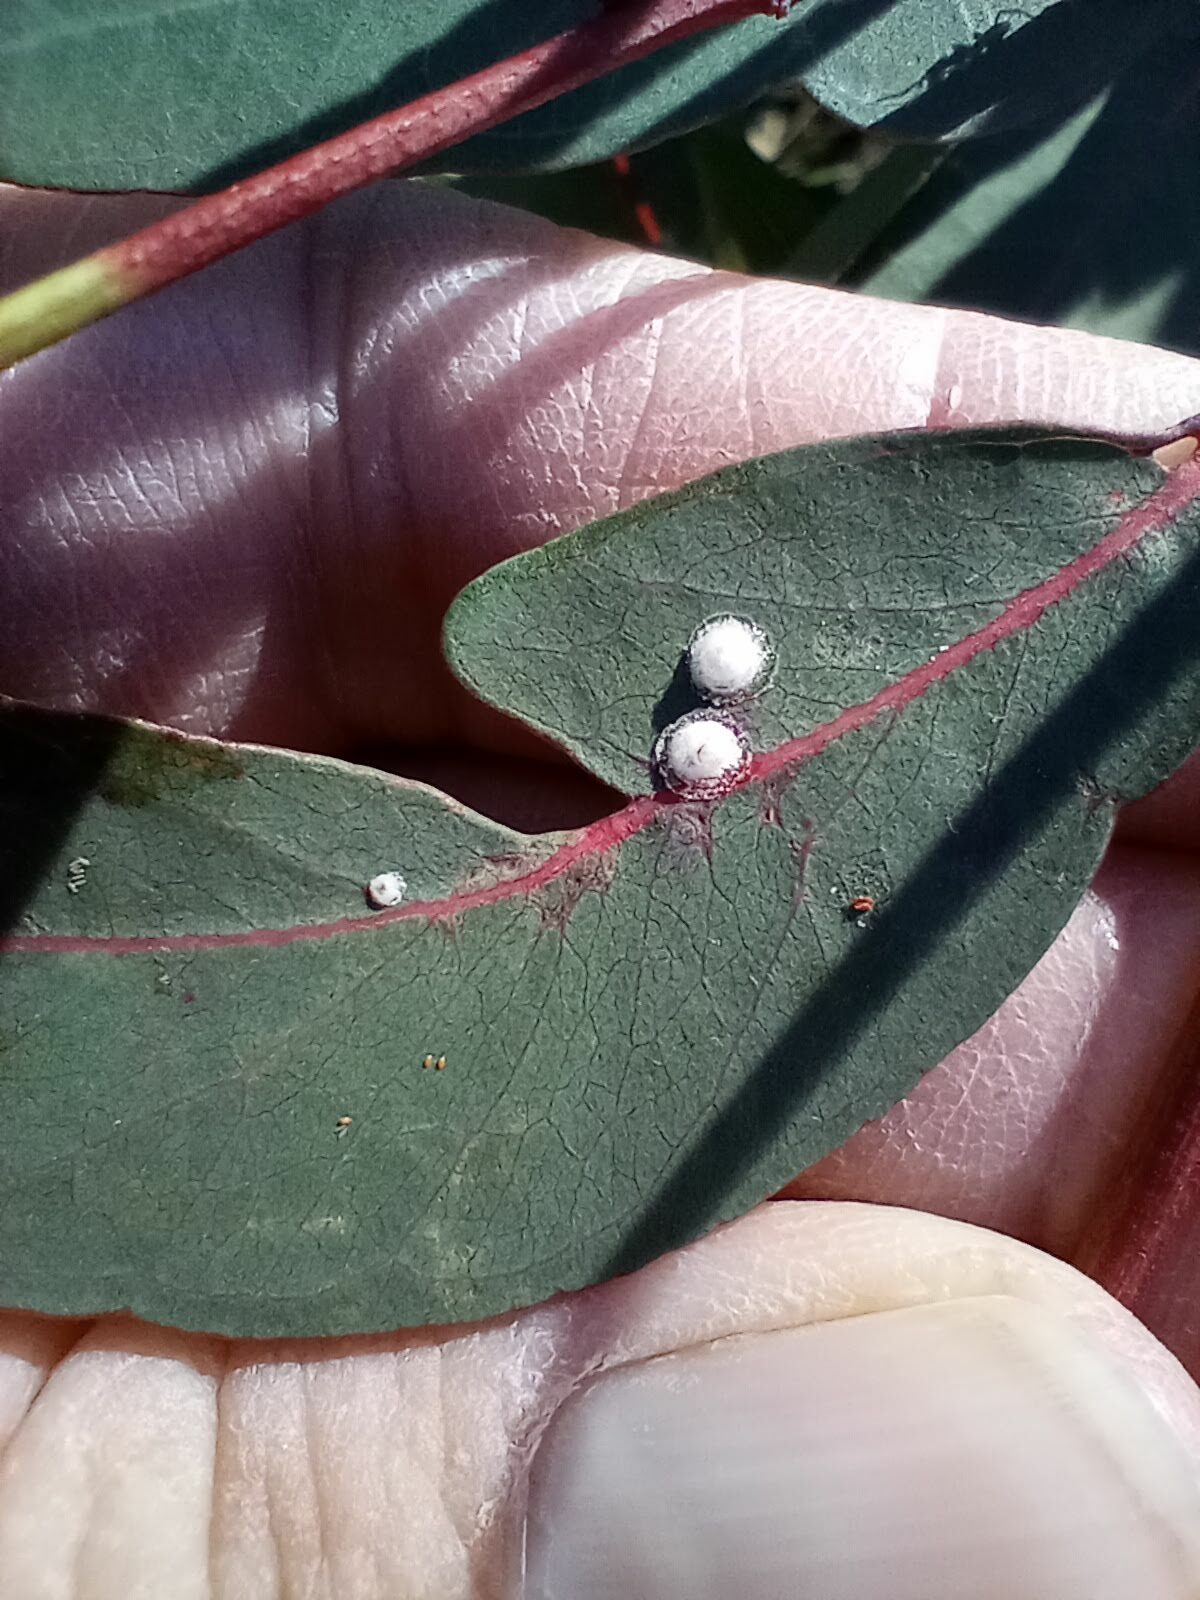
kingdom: Animalia
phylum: Arthropoda
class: Insecta
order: Hemiptera
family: Aphalaridae
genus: Glycaspis
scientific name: Glycaspis brimblecombei
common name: Red gum lerp psyllid
